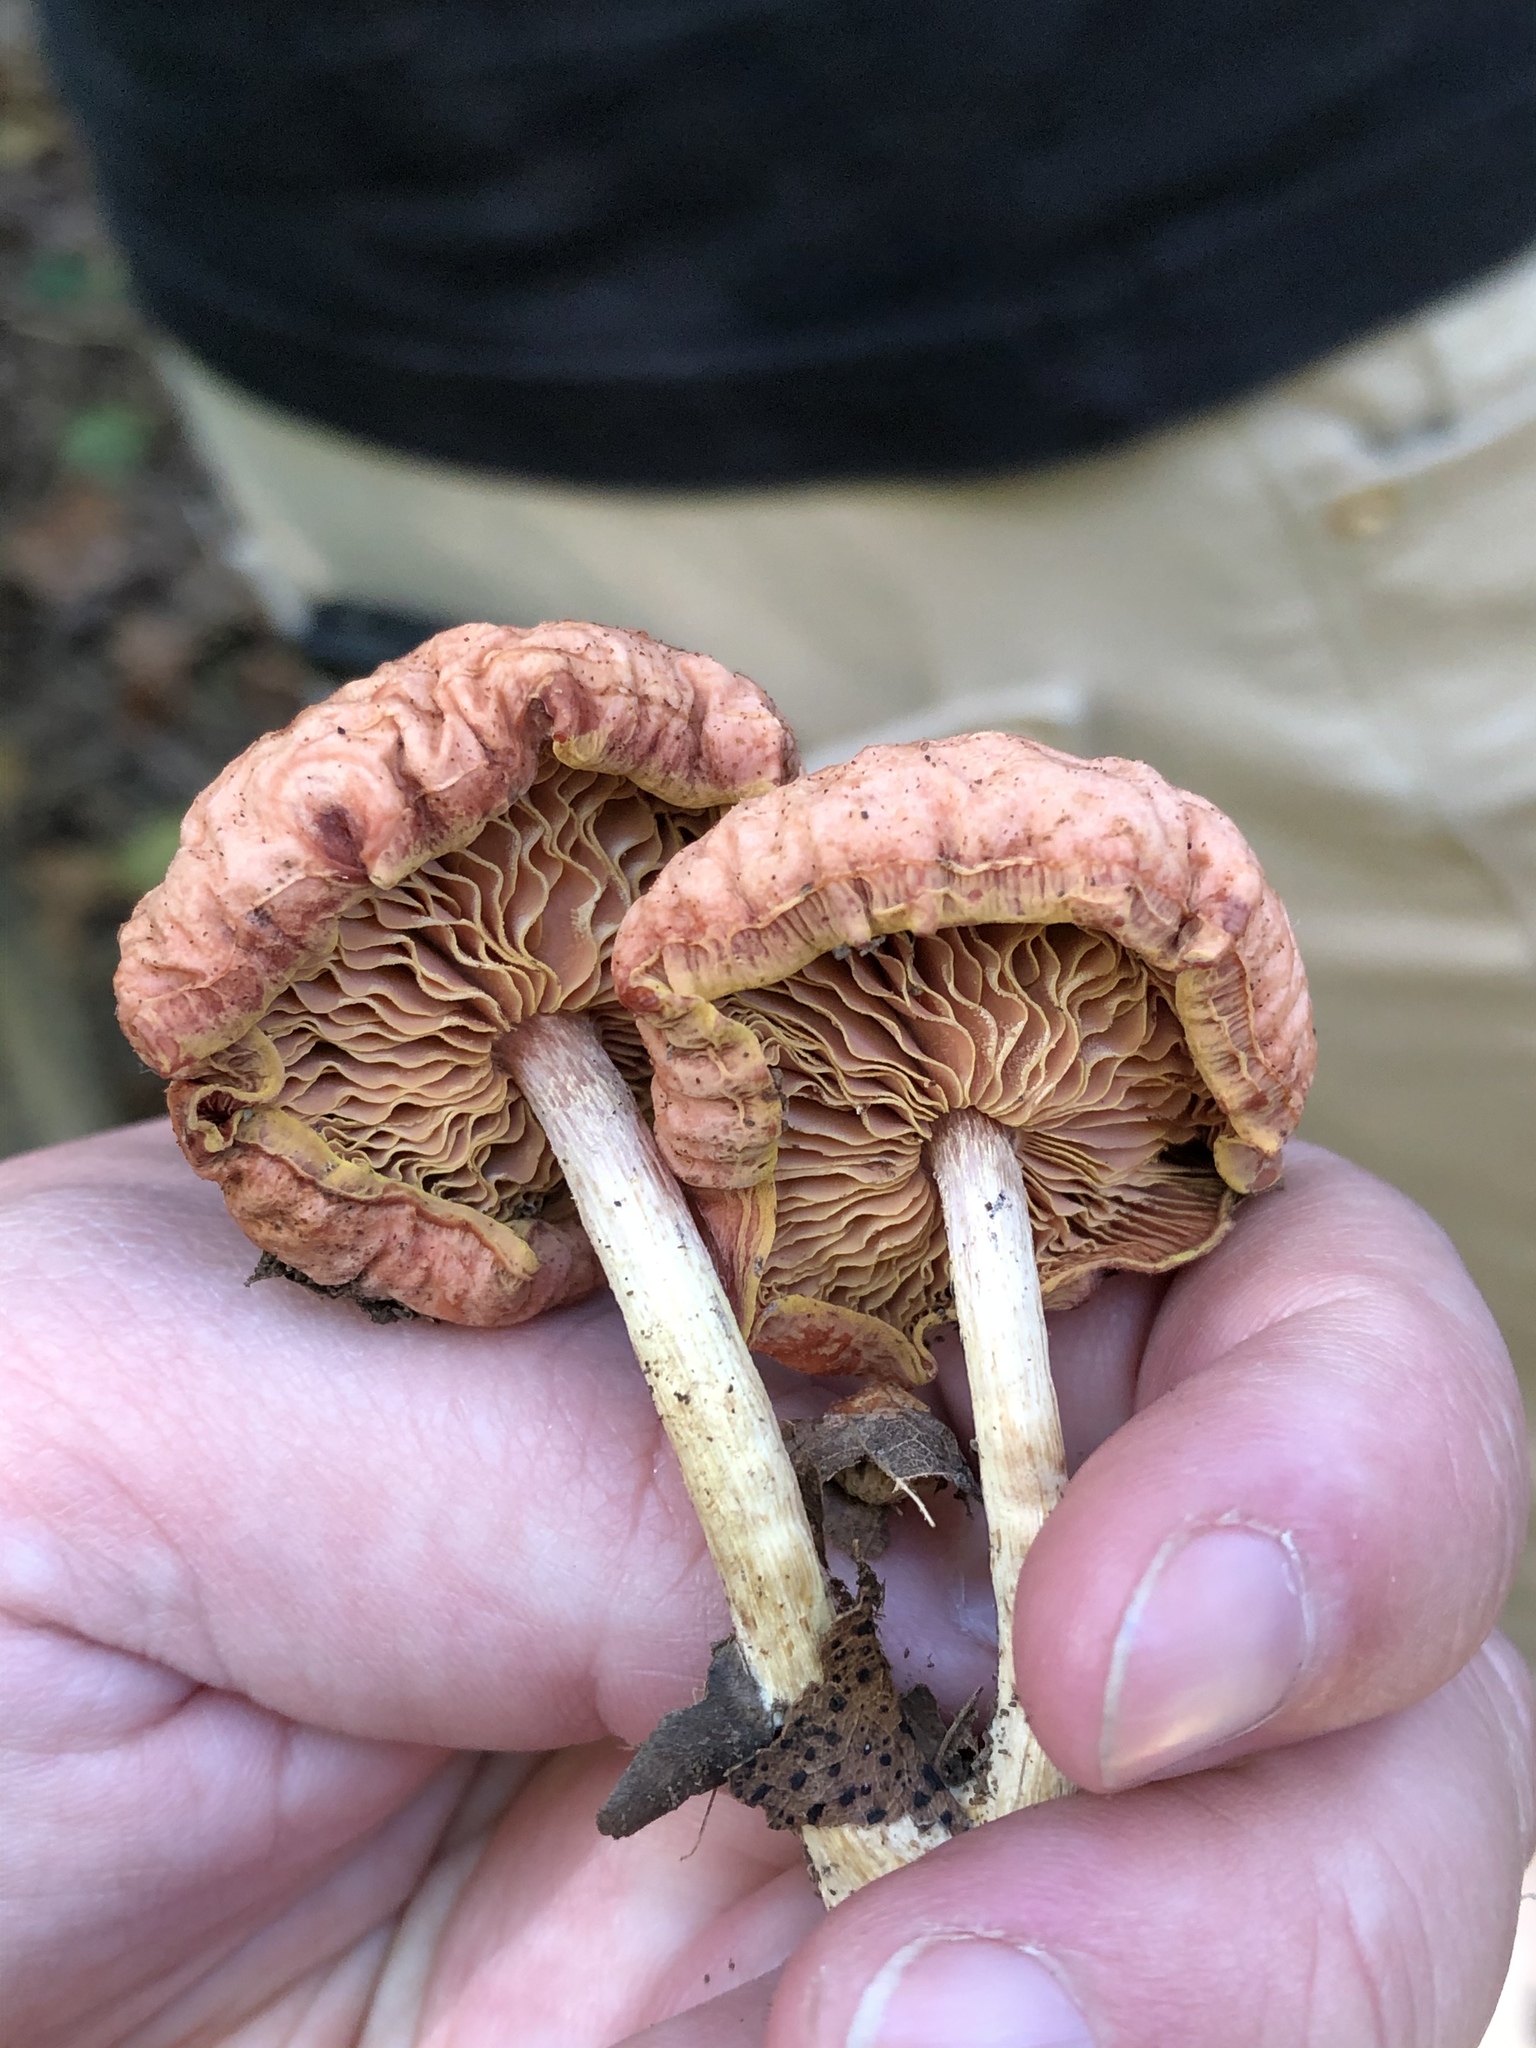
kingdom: Fungi
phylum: Basidiomycota
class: Agaricomycetes
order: Agaricales
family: Physalacriaceae
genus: Rhodotus
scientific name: Rhodotus palmatus
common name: Wrinkled peach
